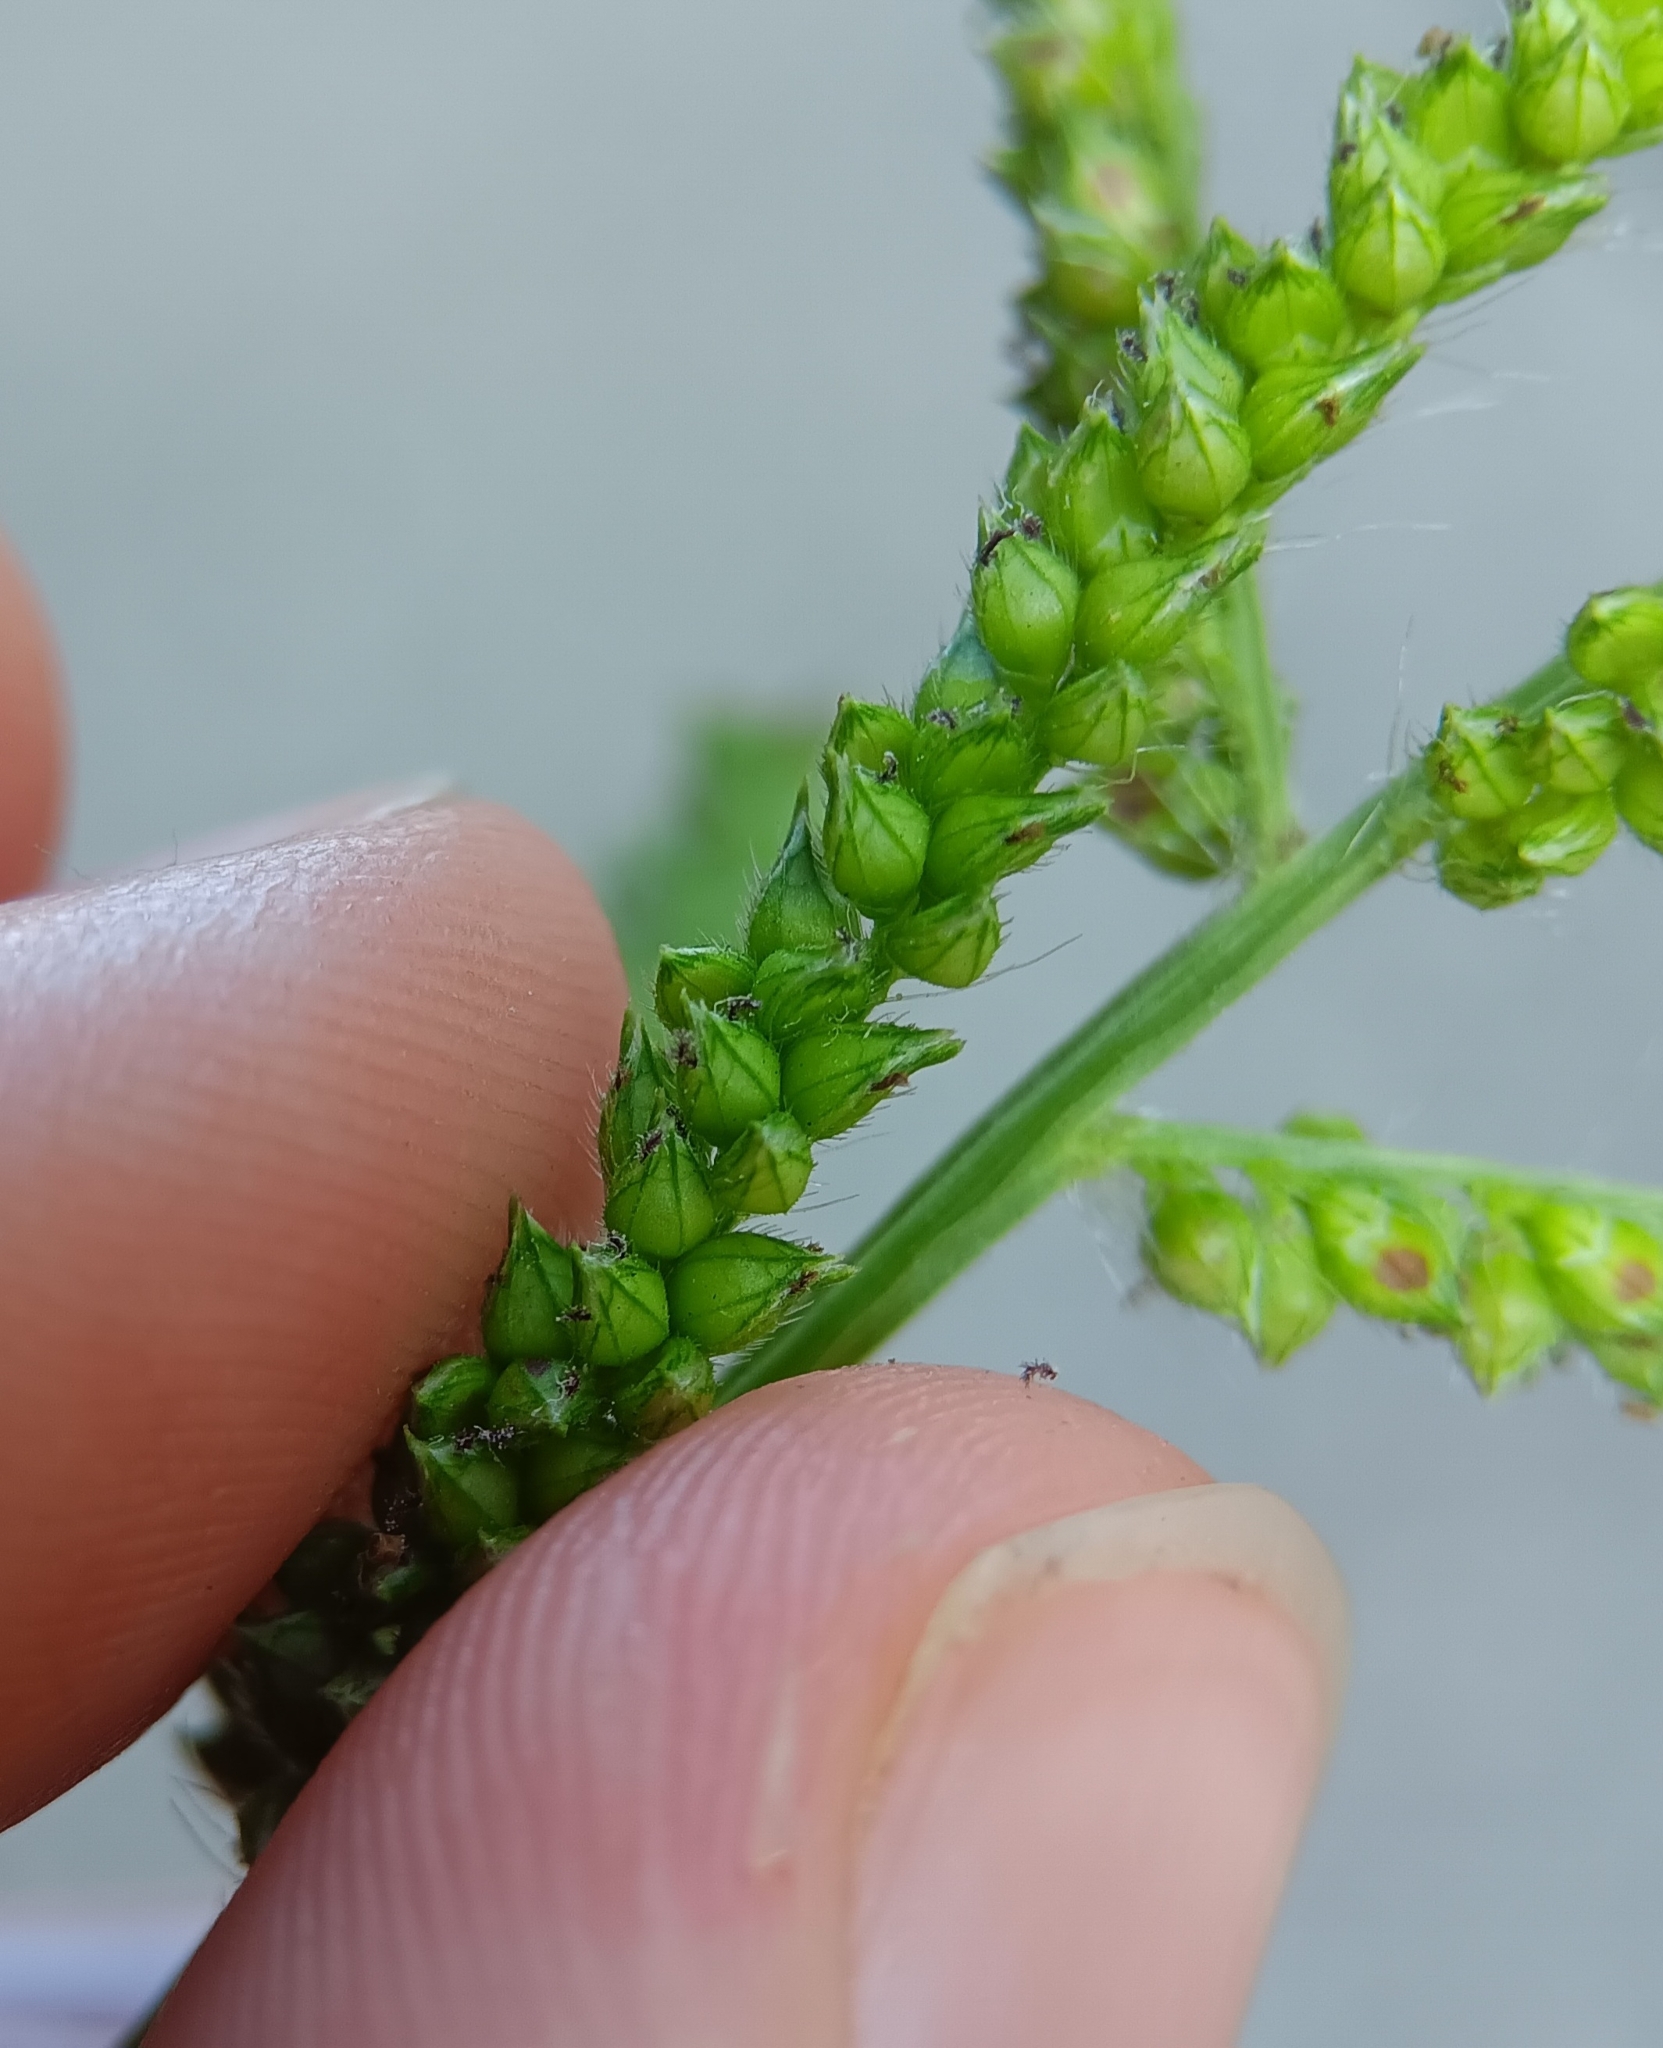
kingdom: Plantae
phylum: Tracheophyta
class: Liliopsida
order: Poales
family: Poaceae
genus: Echinochloa
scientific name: Echinochloa crus-galli
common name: Cockspur
